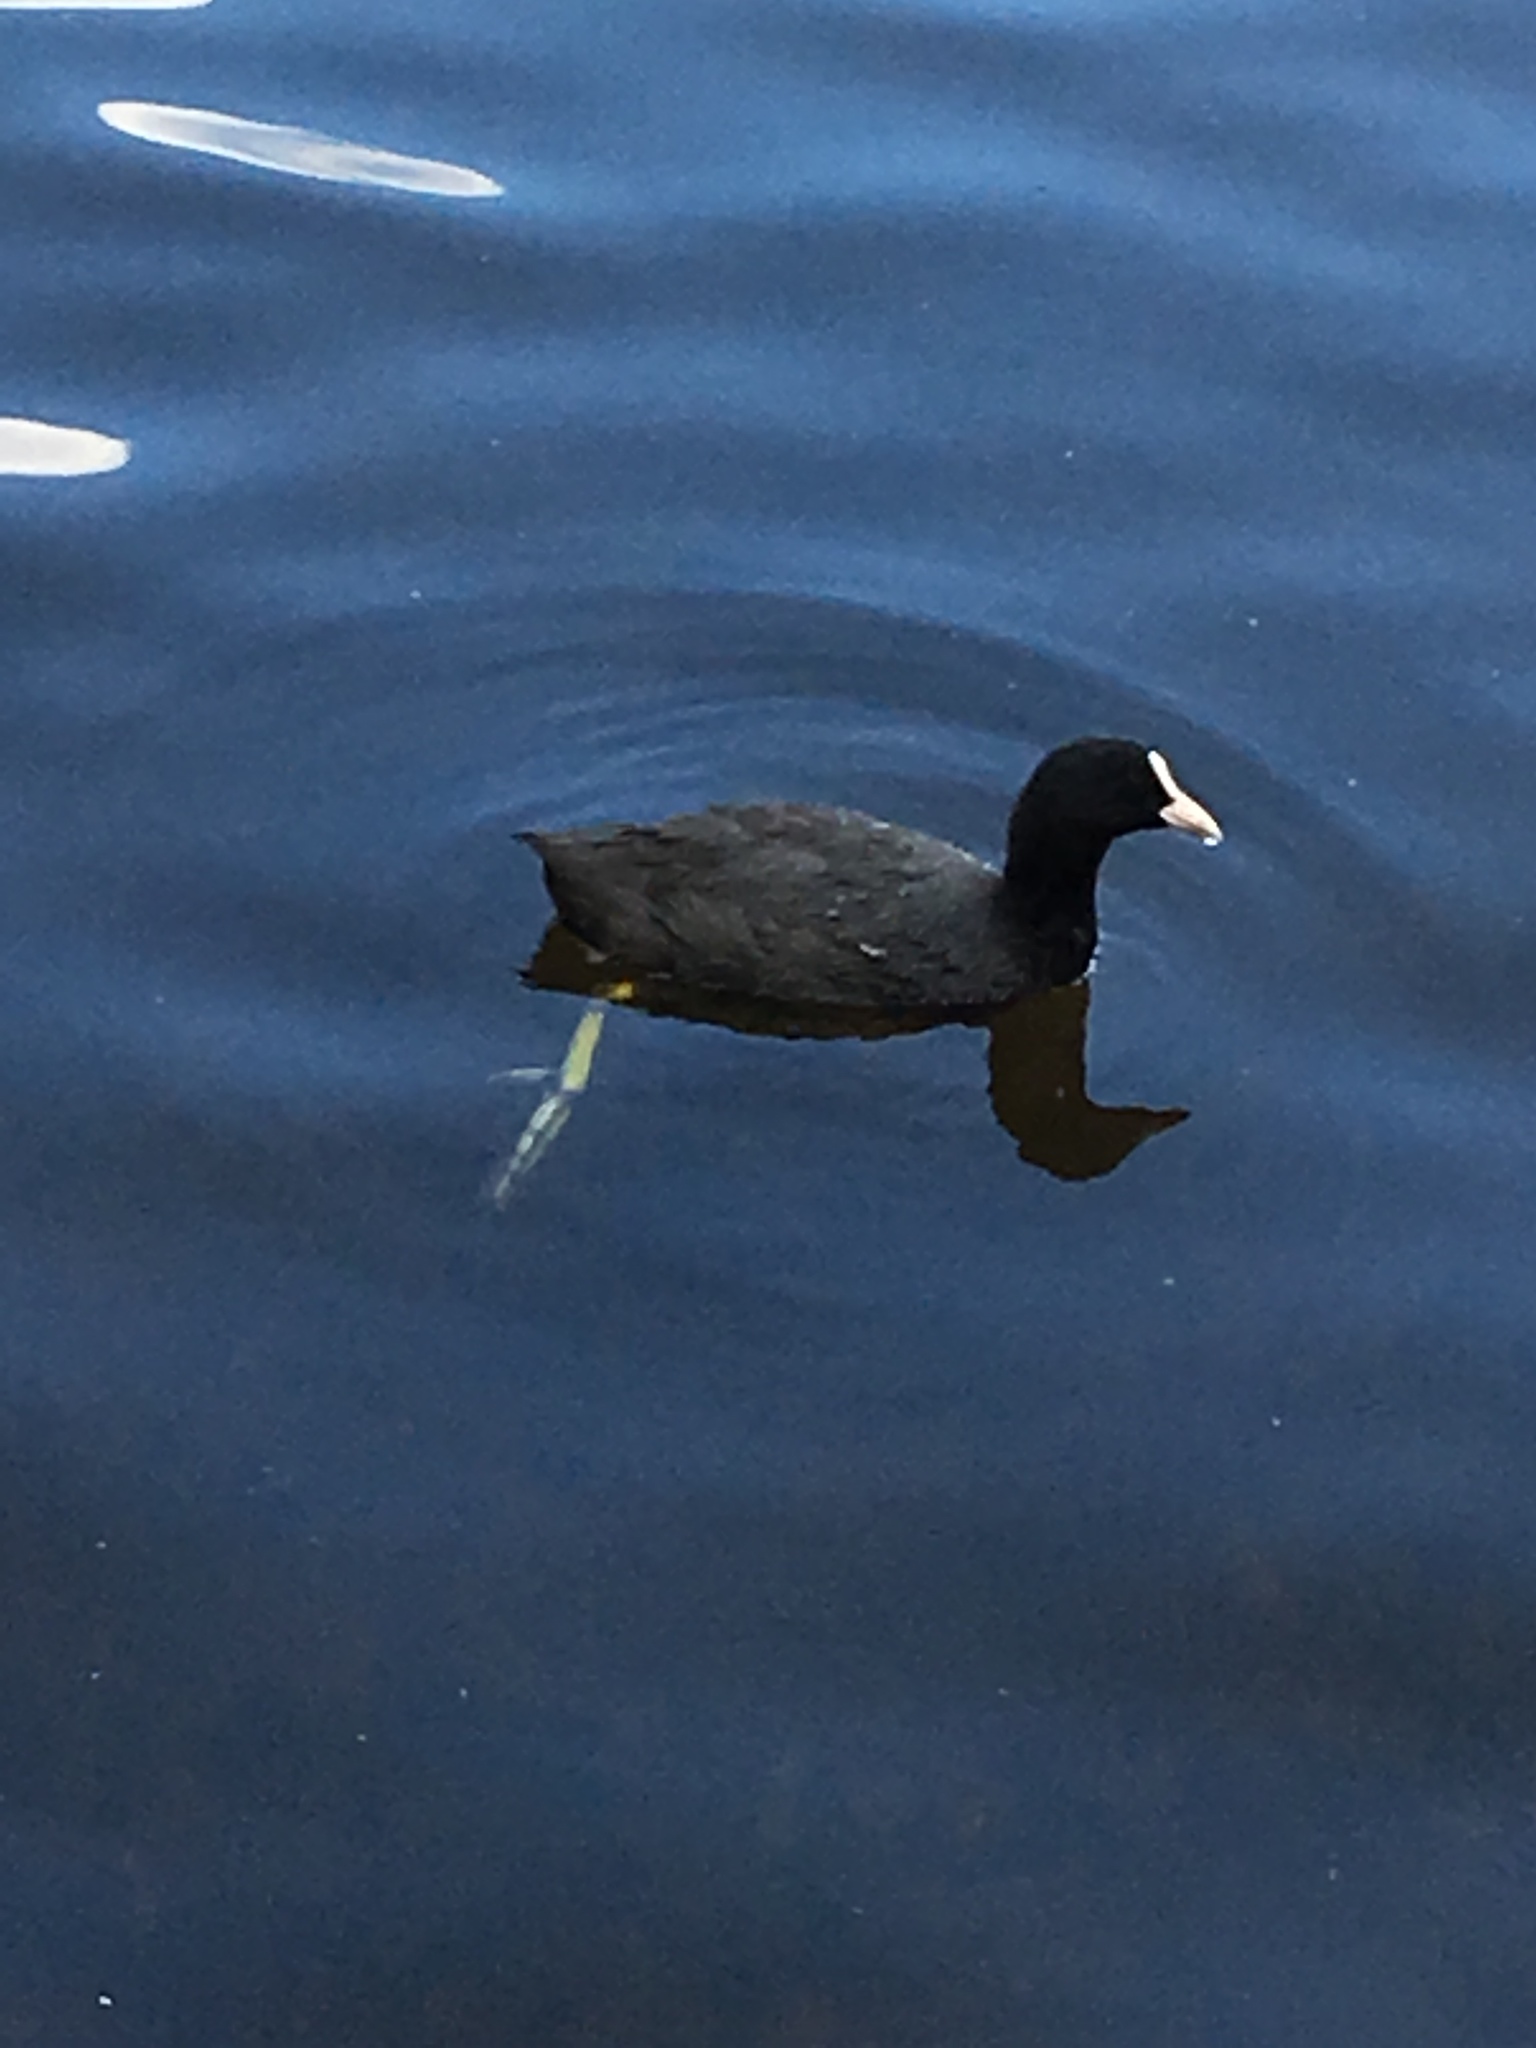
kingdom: Animalia
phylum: Chordata
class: Aves
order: Gruiformes
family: Rallidae
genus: Fulica
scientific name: Fulica atra
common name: Eurasian coot
